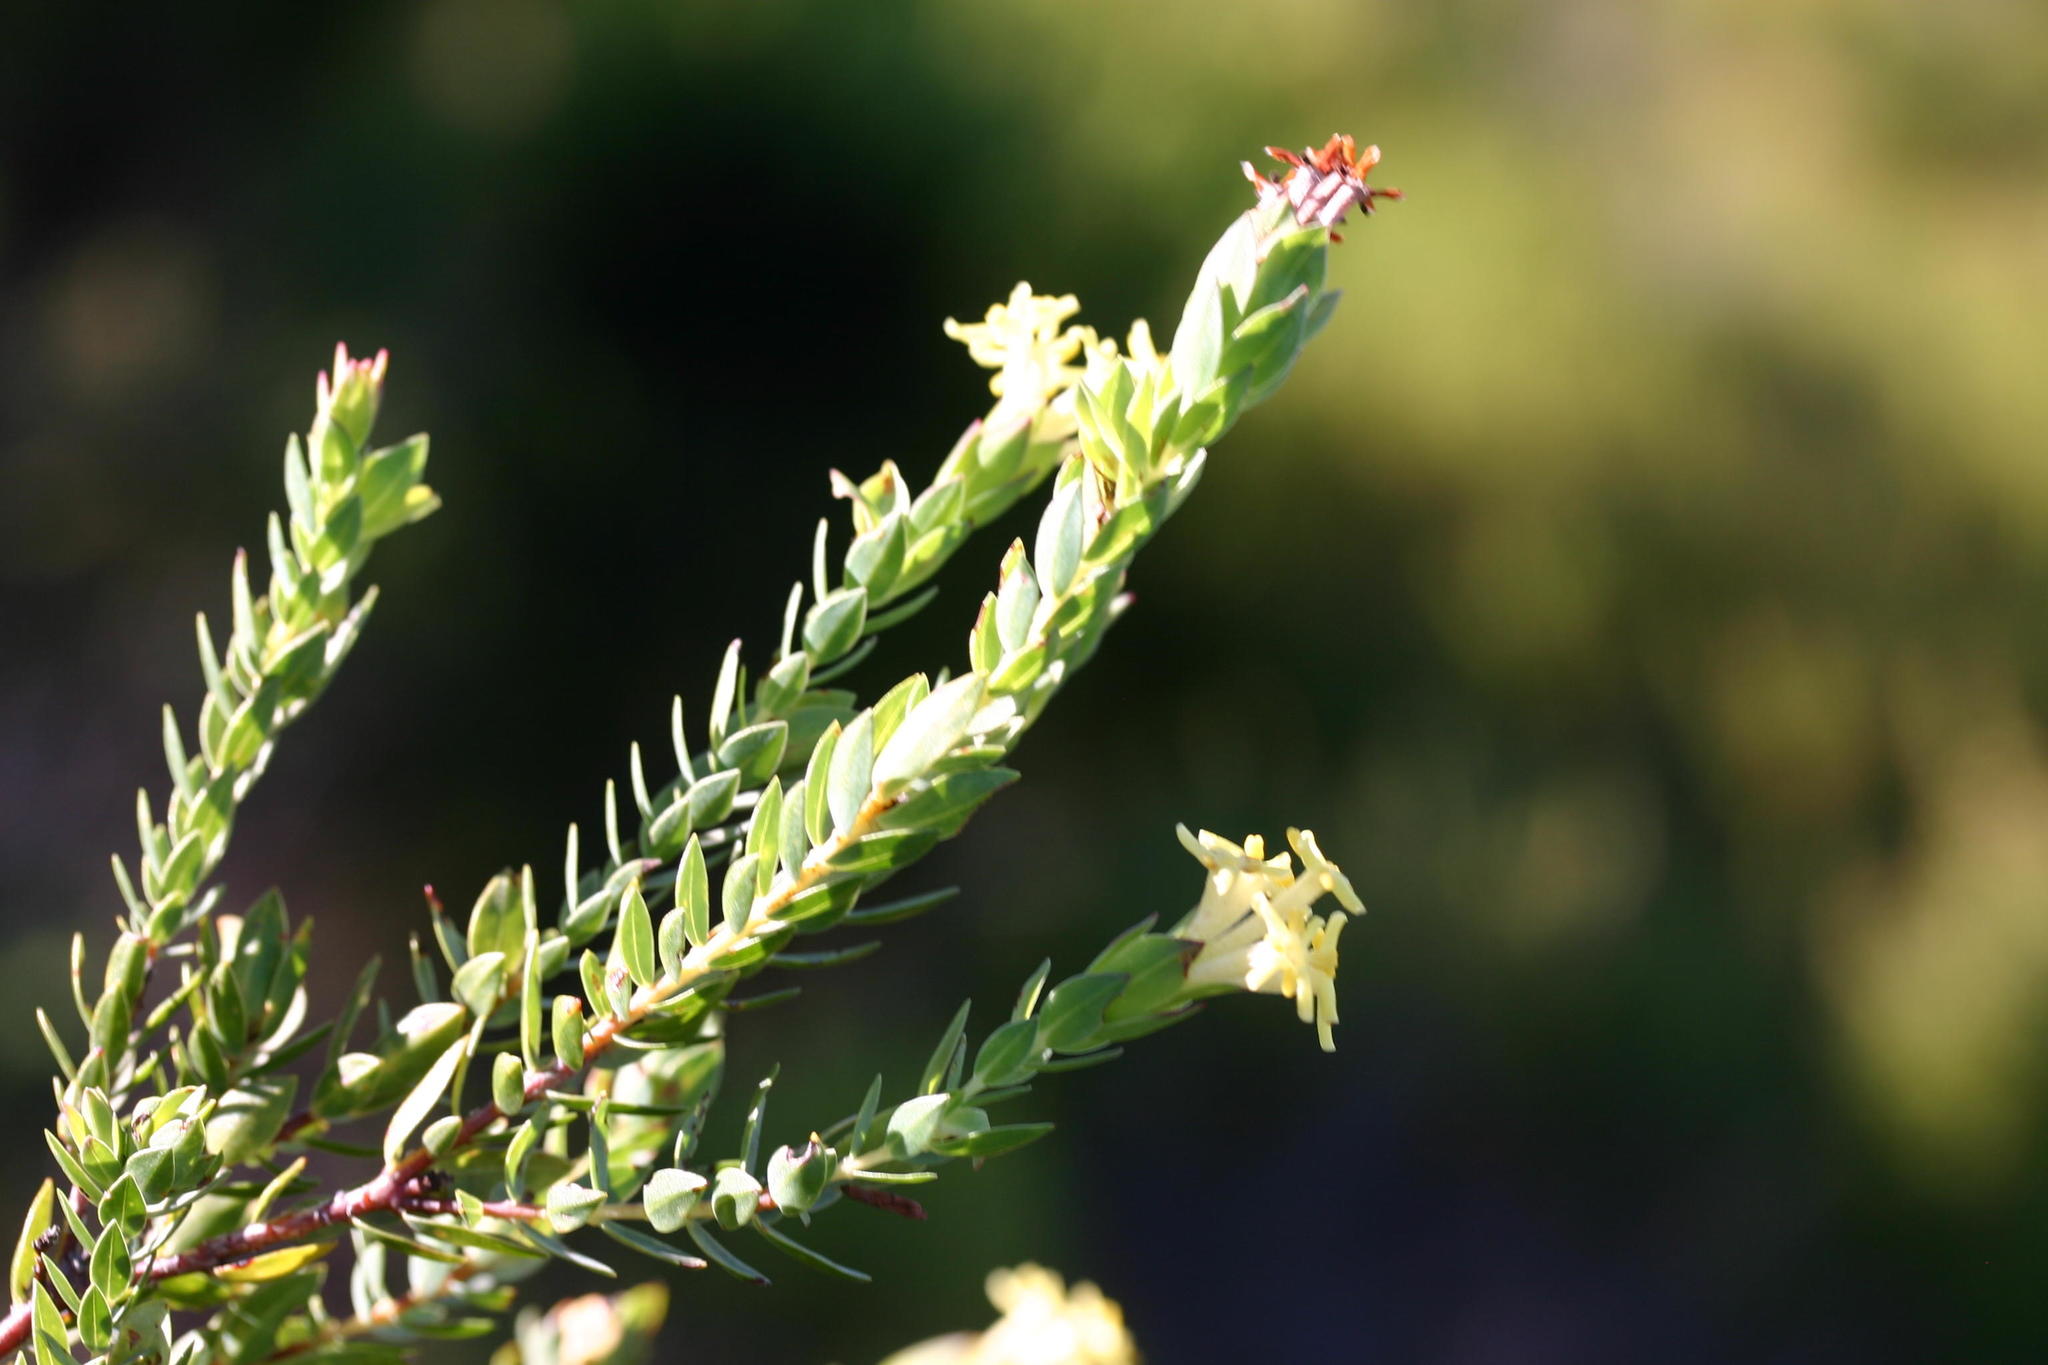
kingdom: Plantae
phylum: Tracheophyta
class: Magnoliopsida
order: Malvales
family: Thymelaeaceae
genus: Gnidia
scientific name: Gnidia oppositifolia
